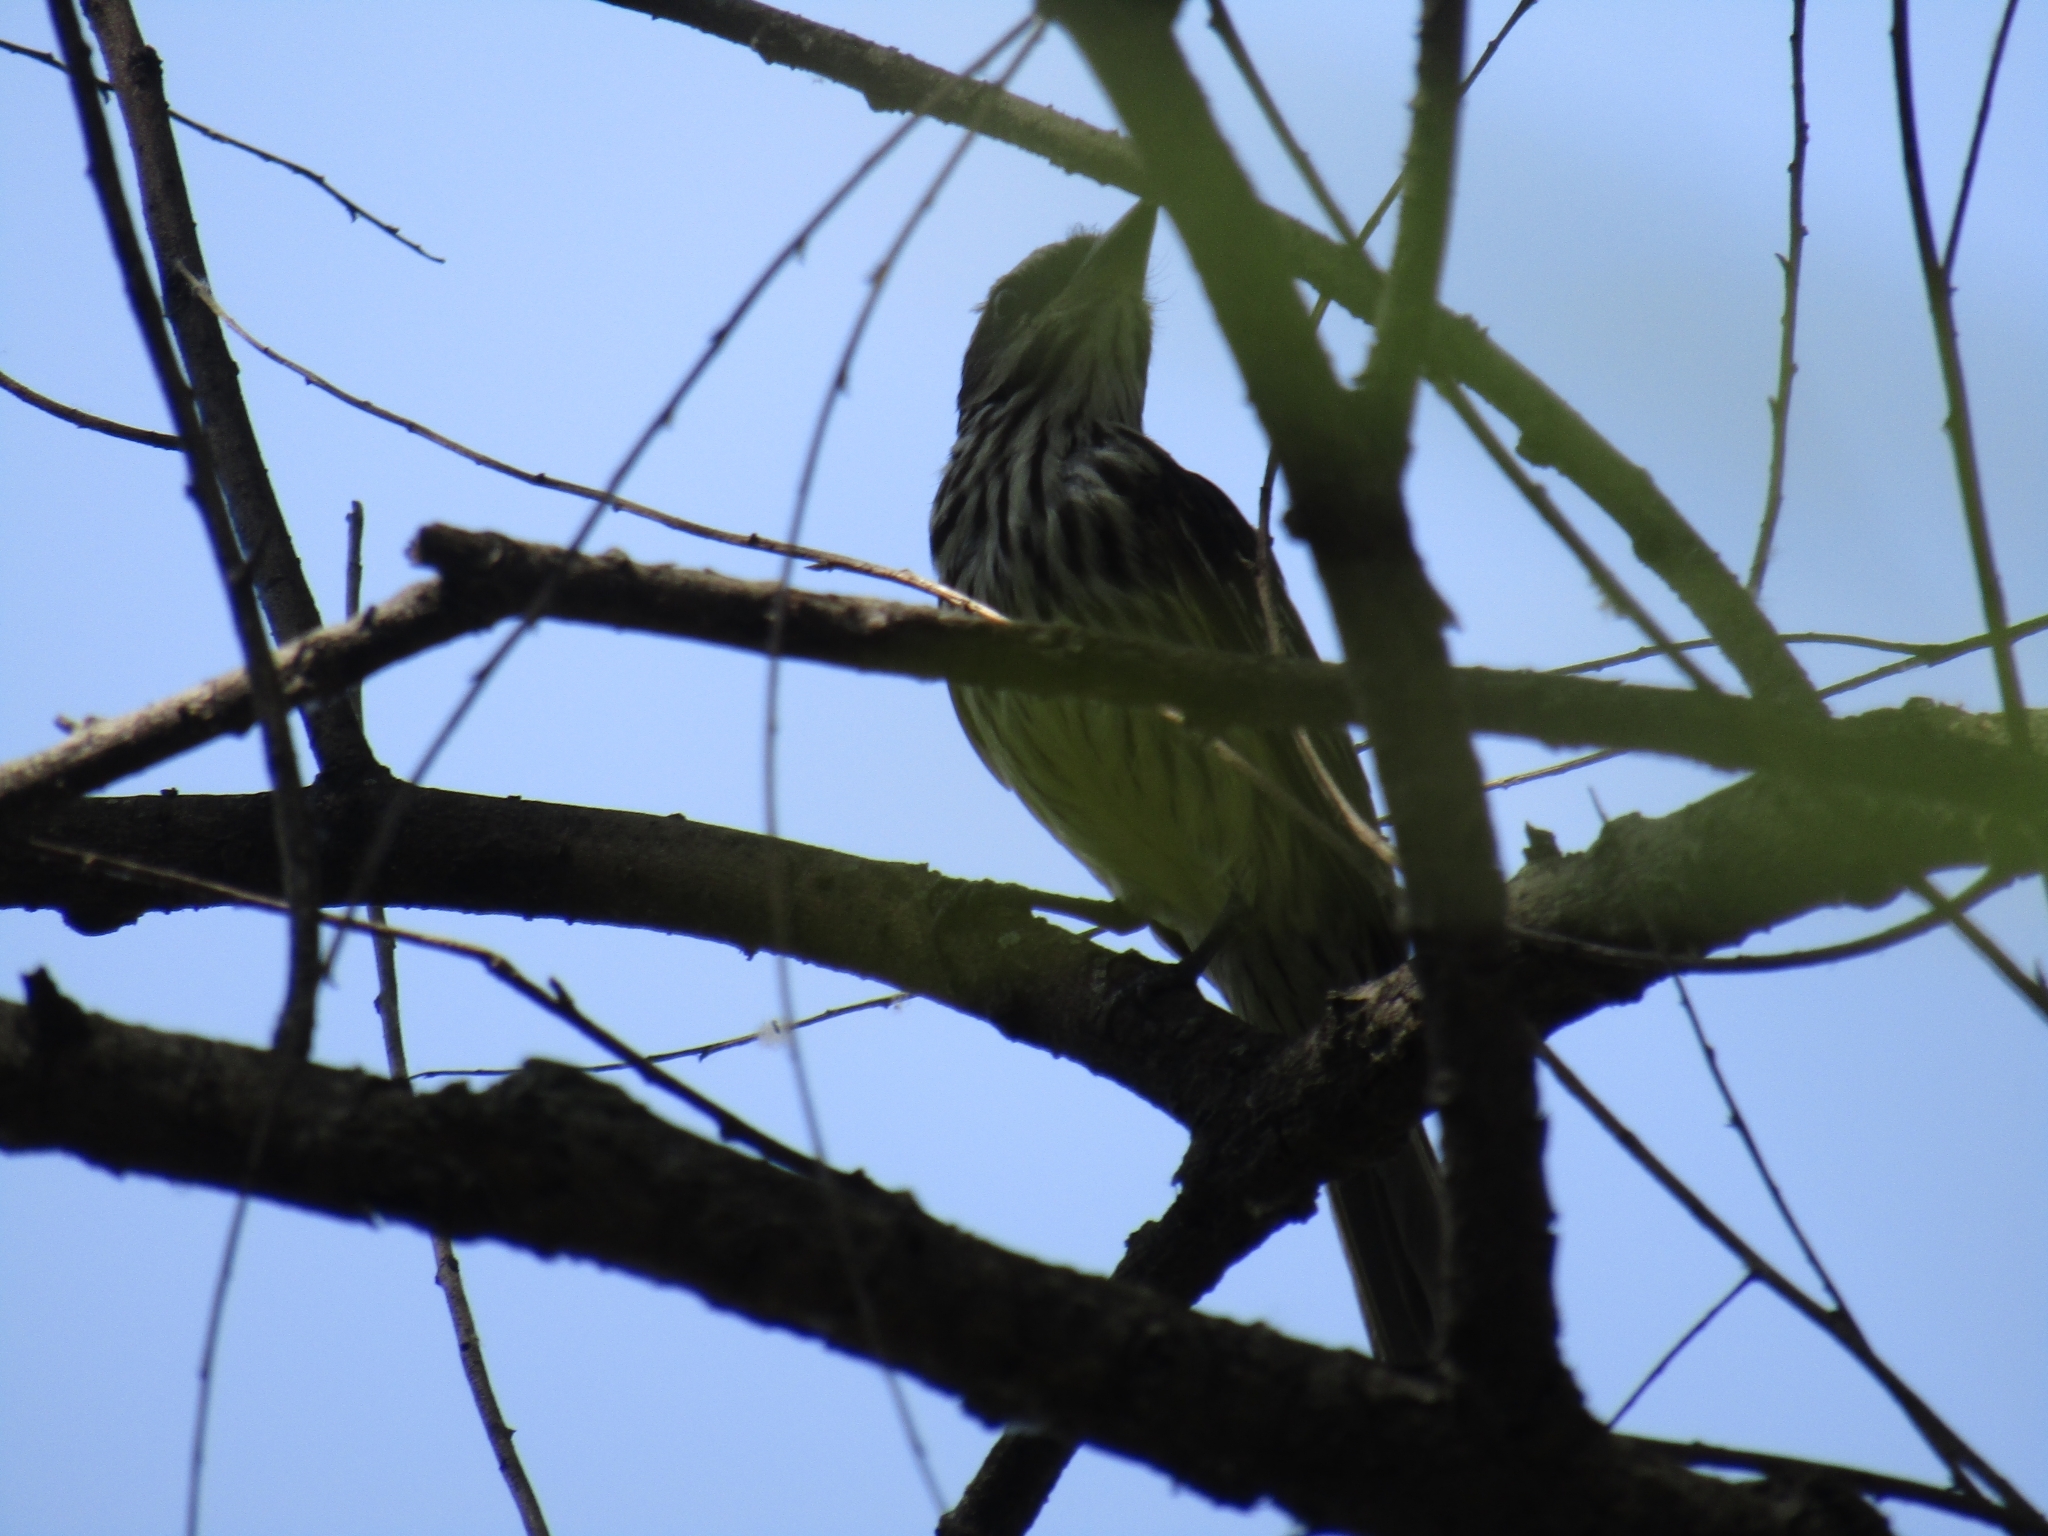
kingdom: Animalia
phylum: Chordata
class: Aves
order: Passeriformes
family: Tyrannidae
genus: Myiodynastes
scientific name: Myiodynastes maculatus
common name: Streaked flycatcher
